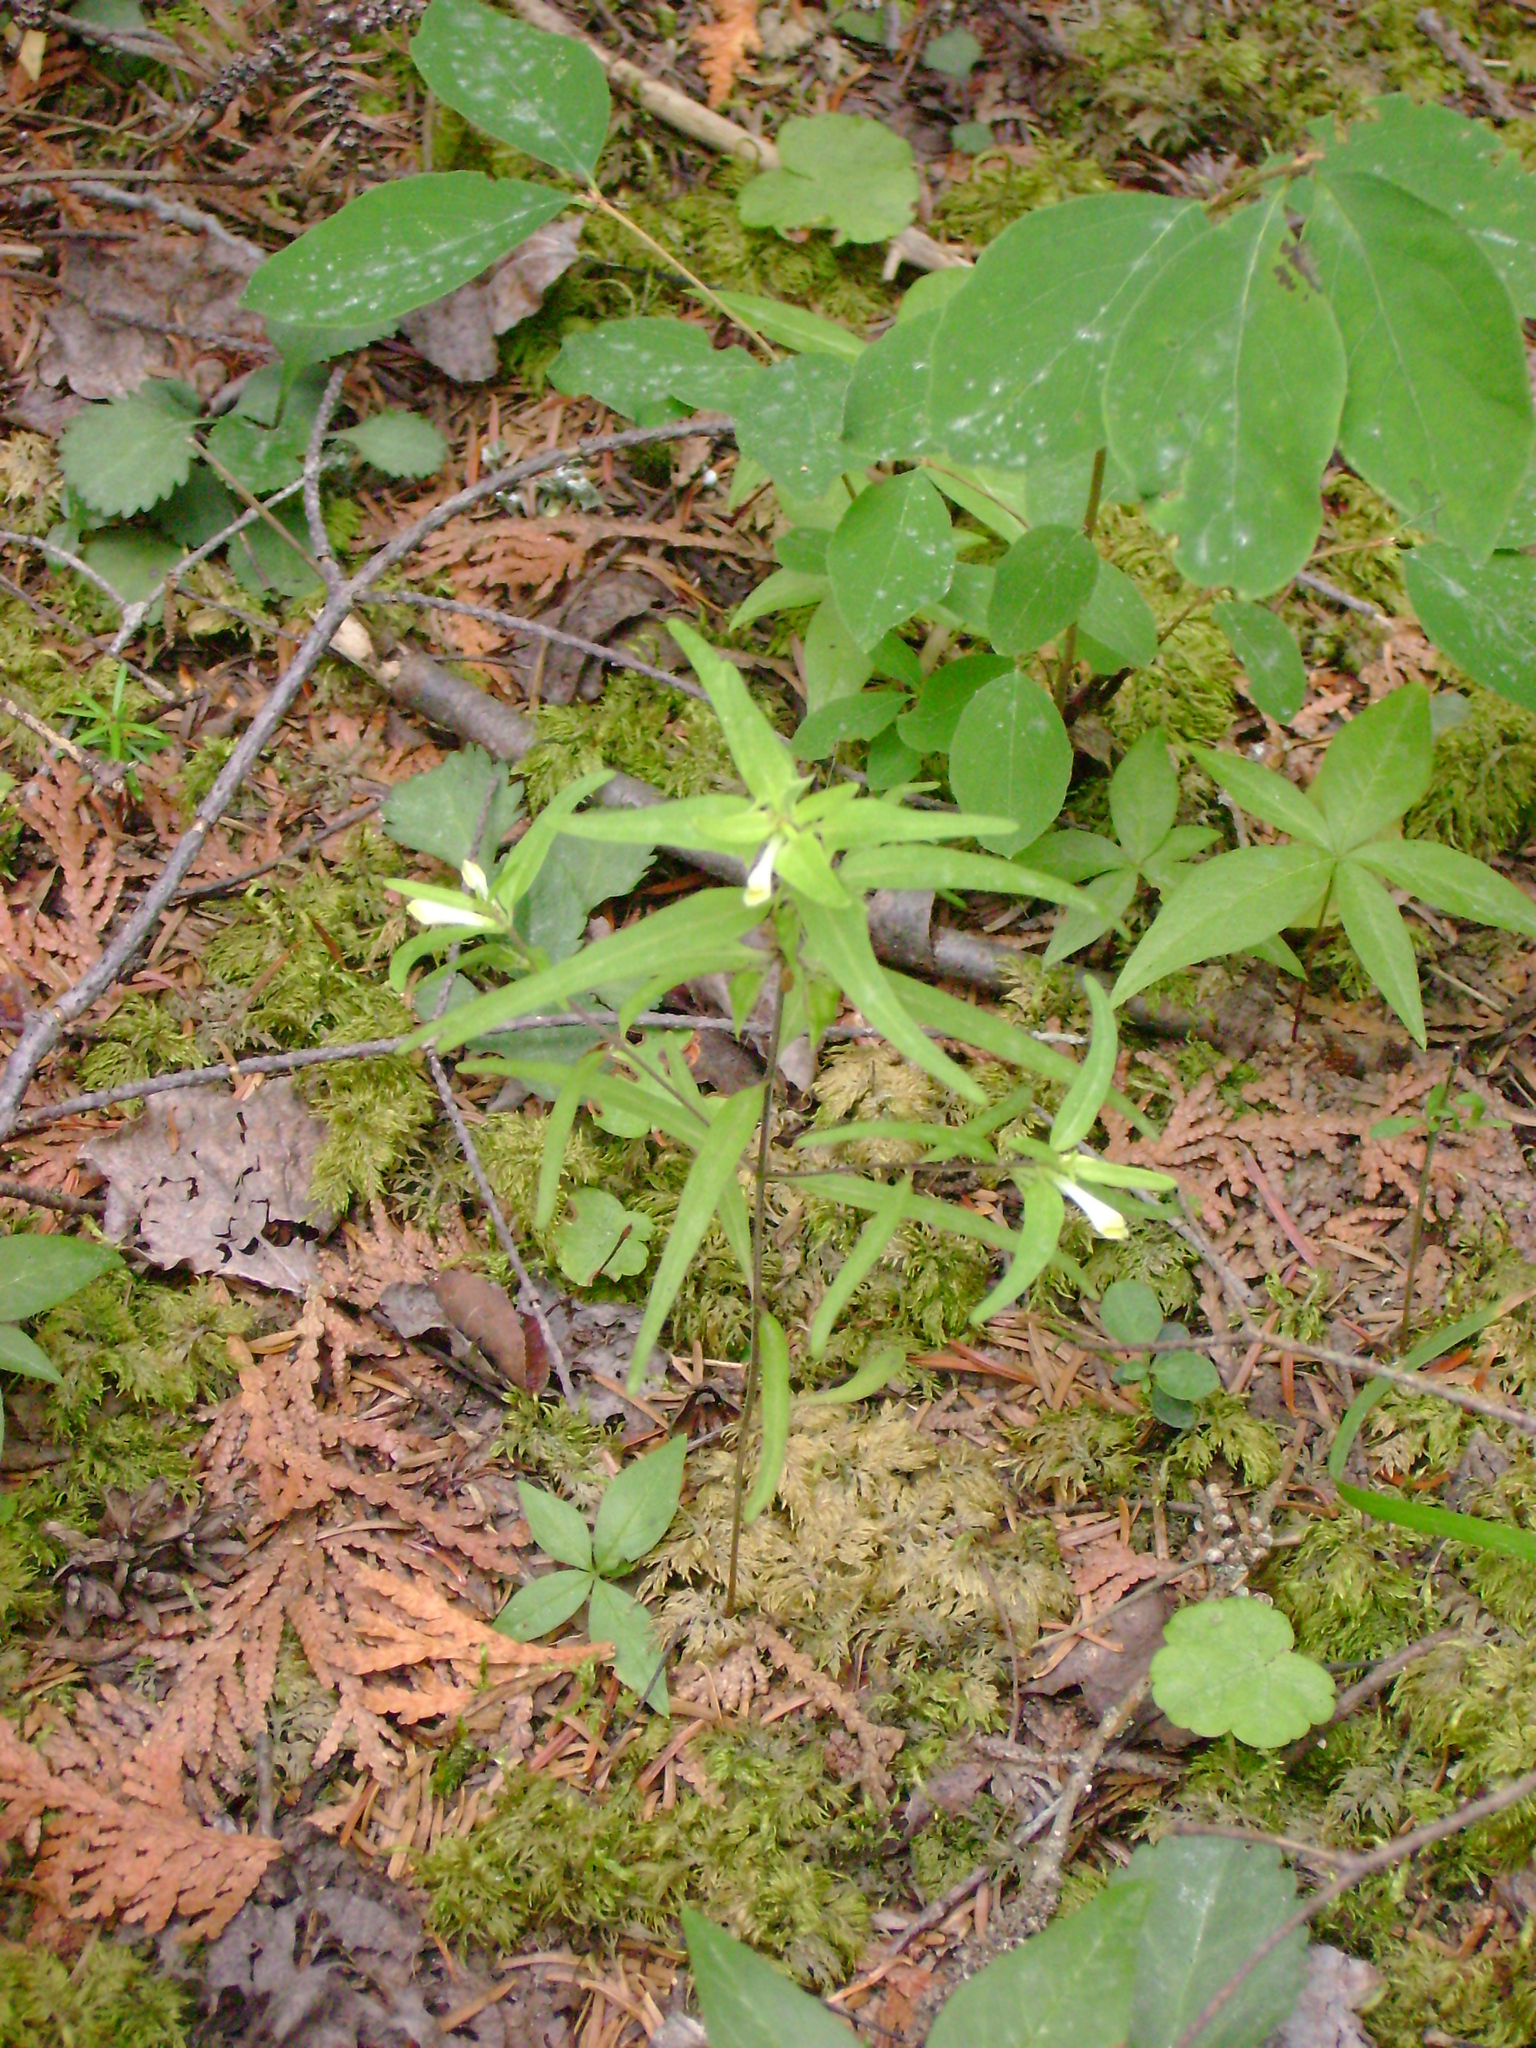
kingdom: Plantae
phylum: Tracheophyta
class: Magnoliopsida
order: Lamiales
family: Orobanchaceae
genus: Melampyrum
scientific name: Melampyrum lineare
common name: American cow-wheat
